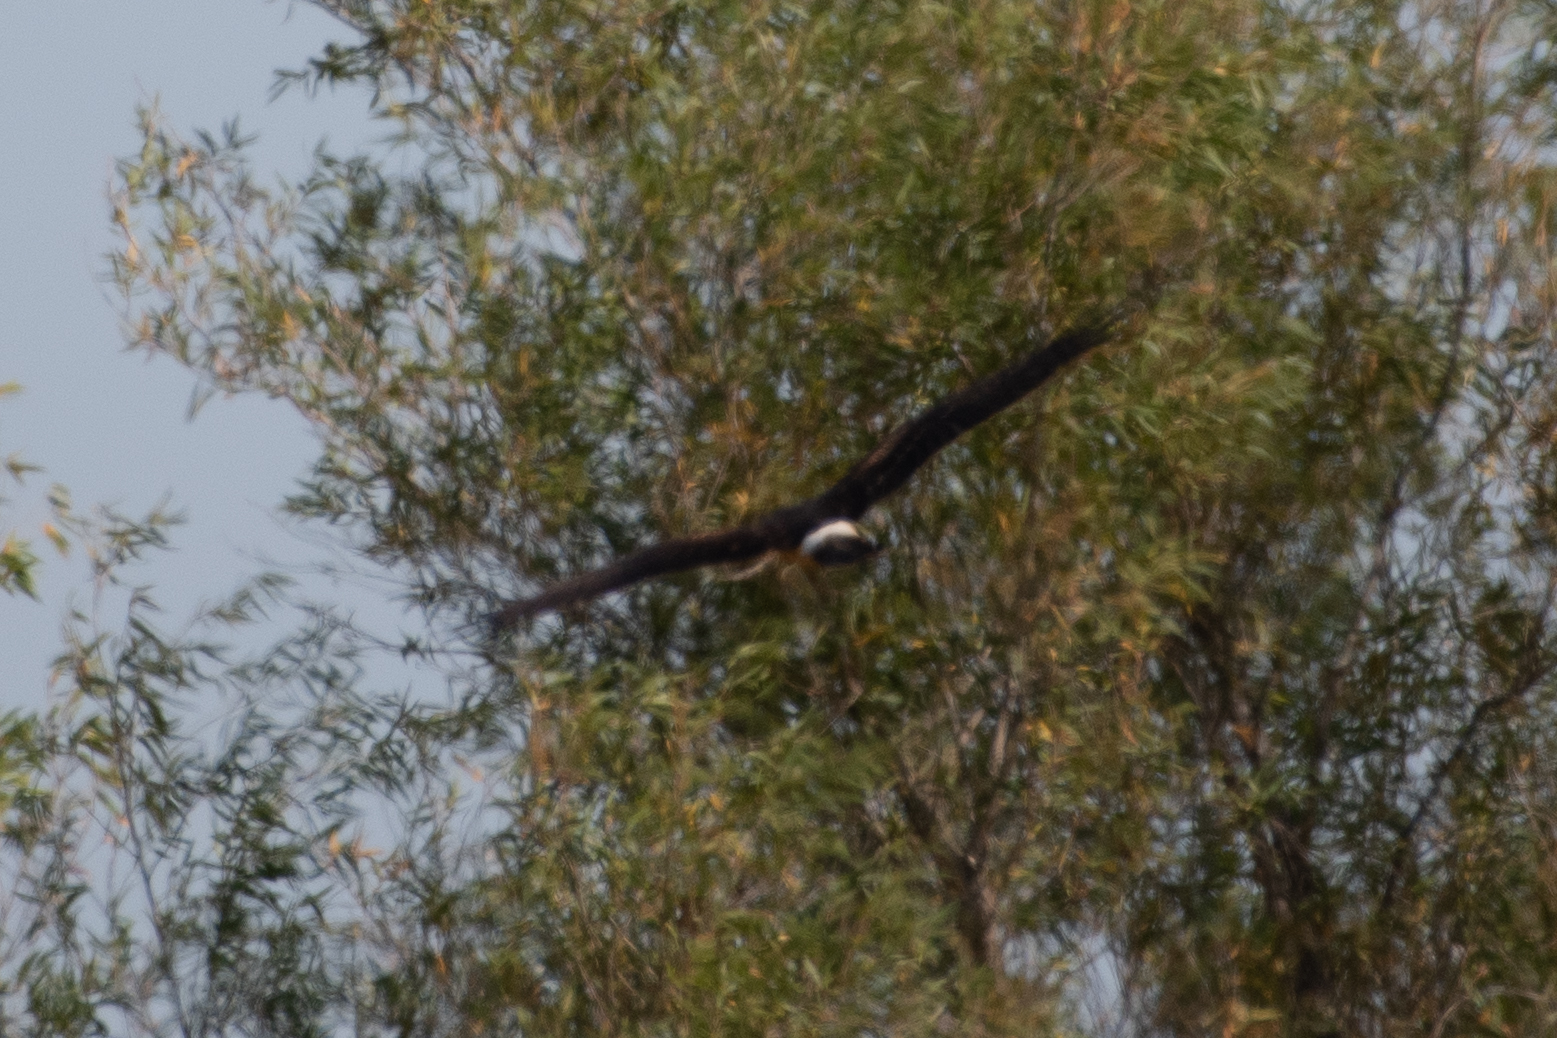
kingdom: Animalia
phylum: Chordata
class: Aves
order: Accipitriformes
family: Accipitridae
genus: Circus
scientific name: Circus cyaneus
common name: Hen harrier
